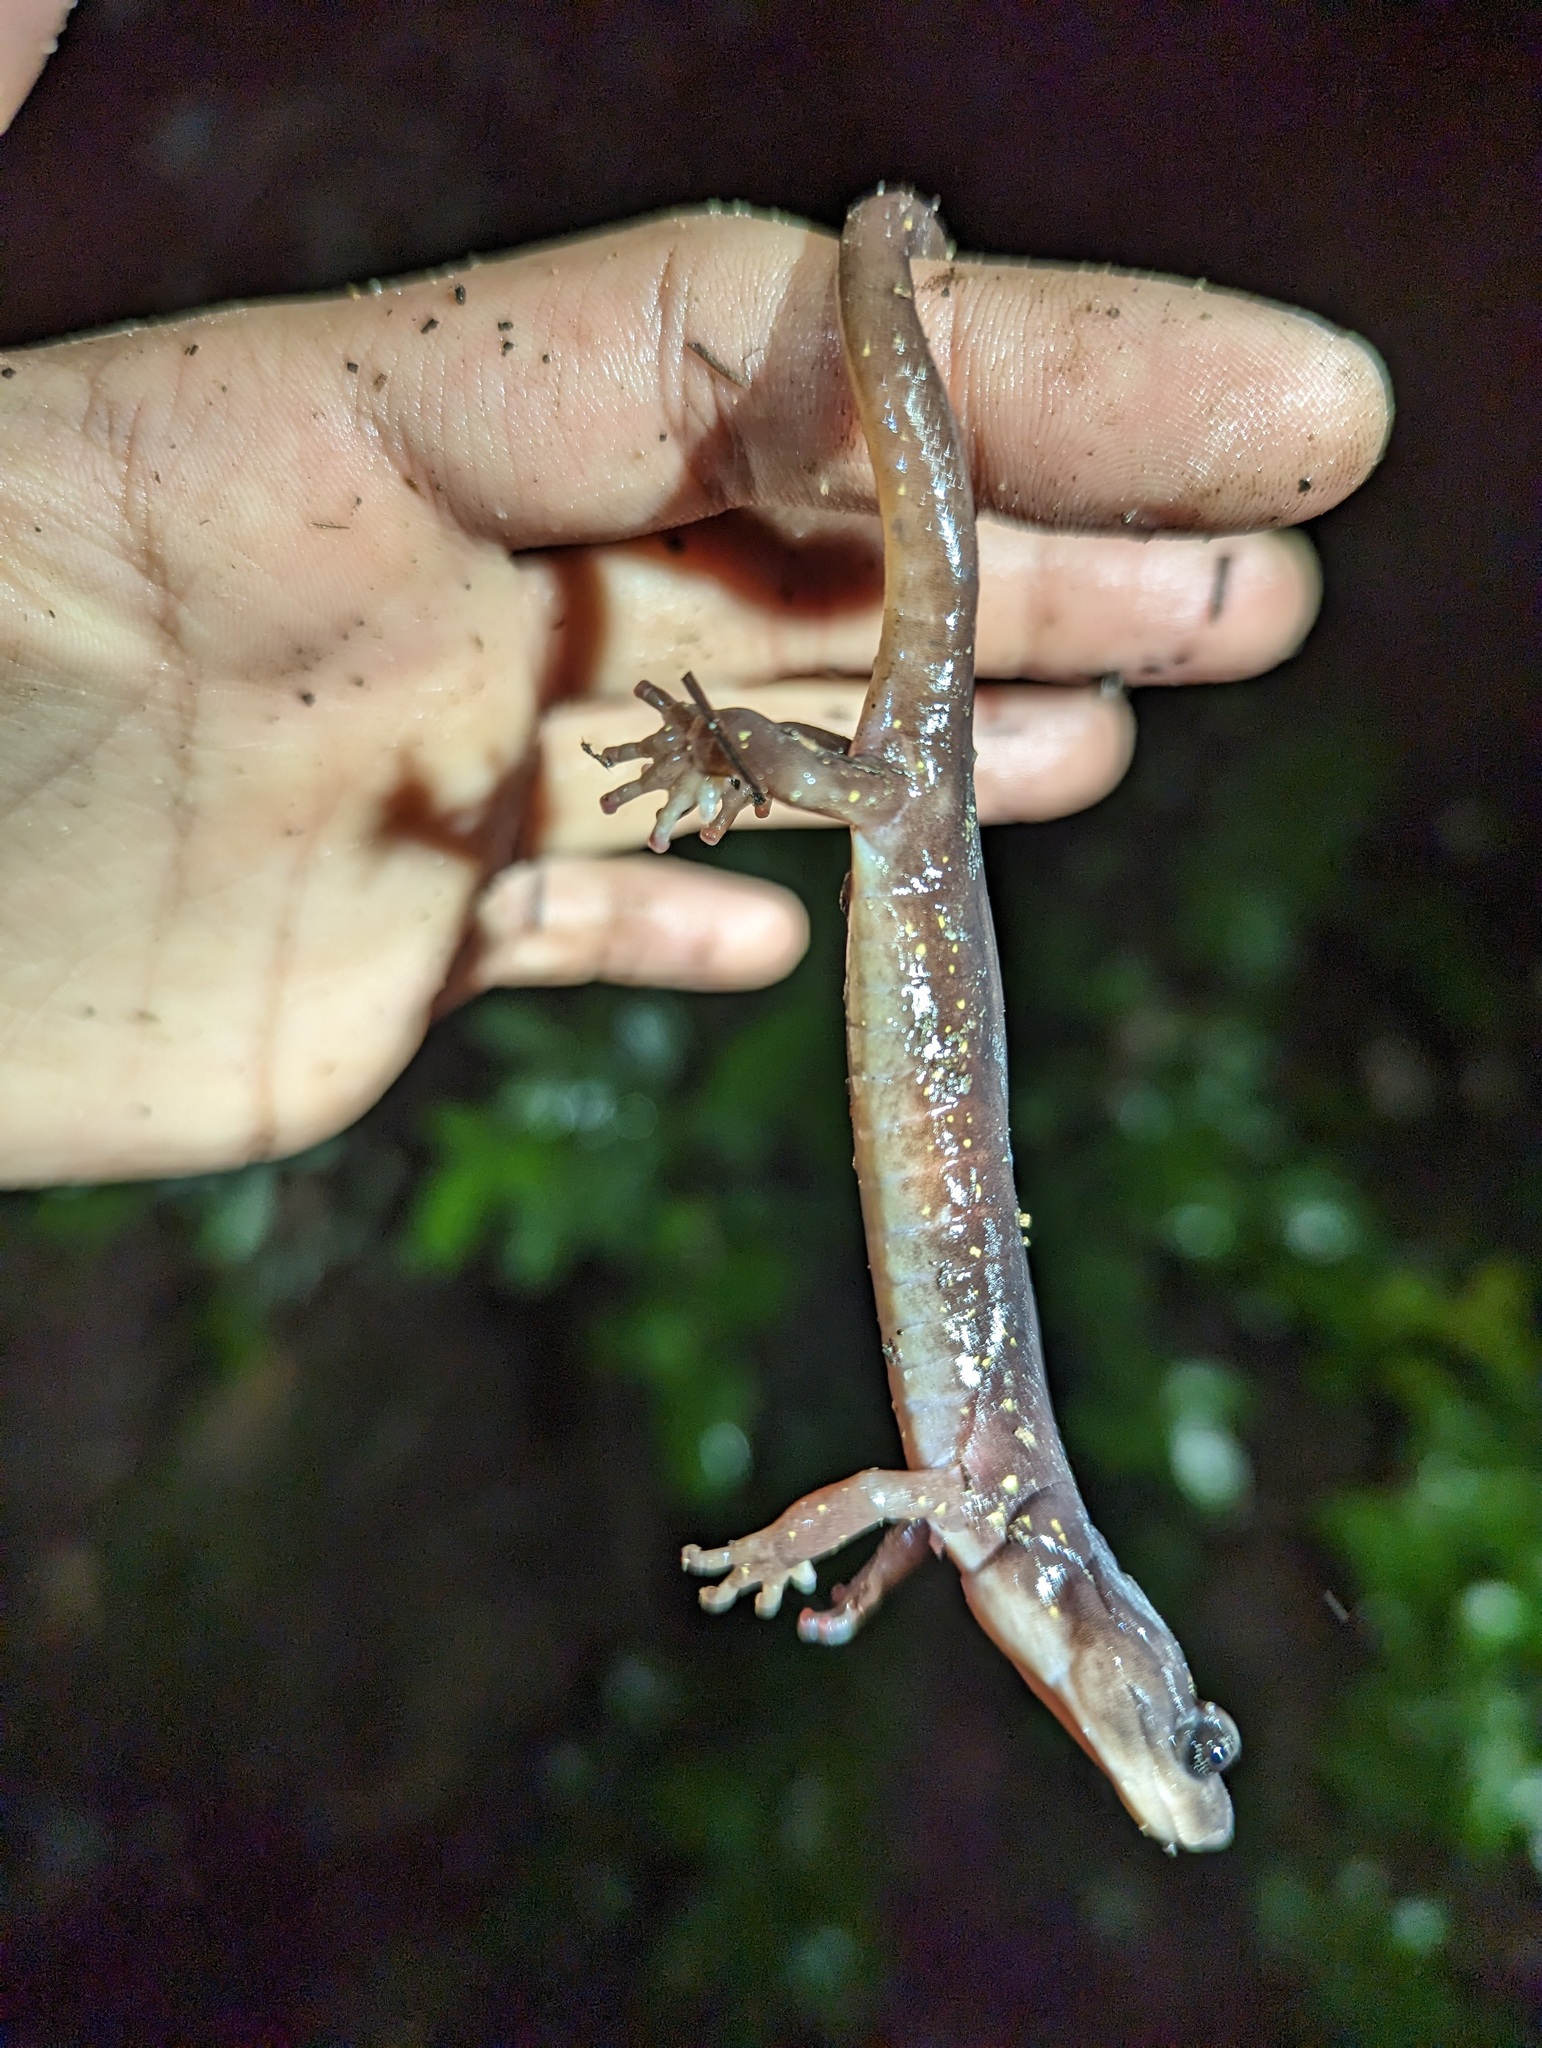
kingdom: Animalia
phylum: Chordata
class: Amphibia
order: Caudata
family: Plethodontidae
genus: Aneides
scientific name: Aneides lugubris
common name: Arboreal salamander
